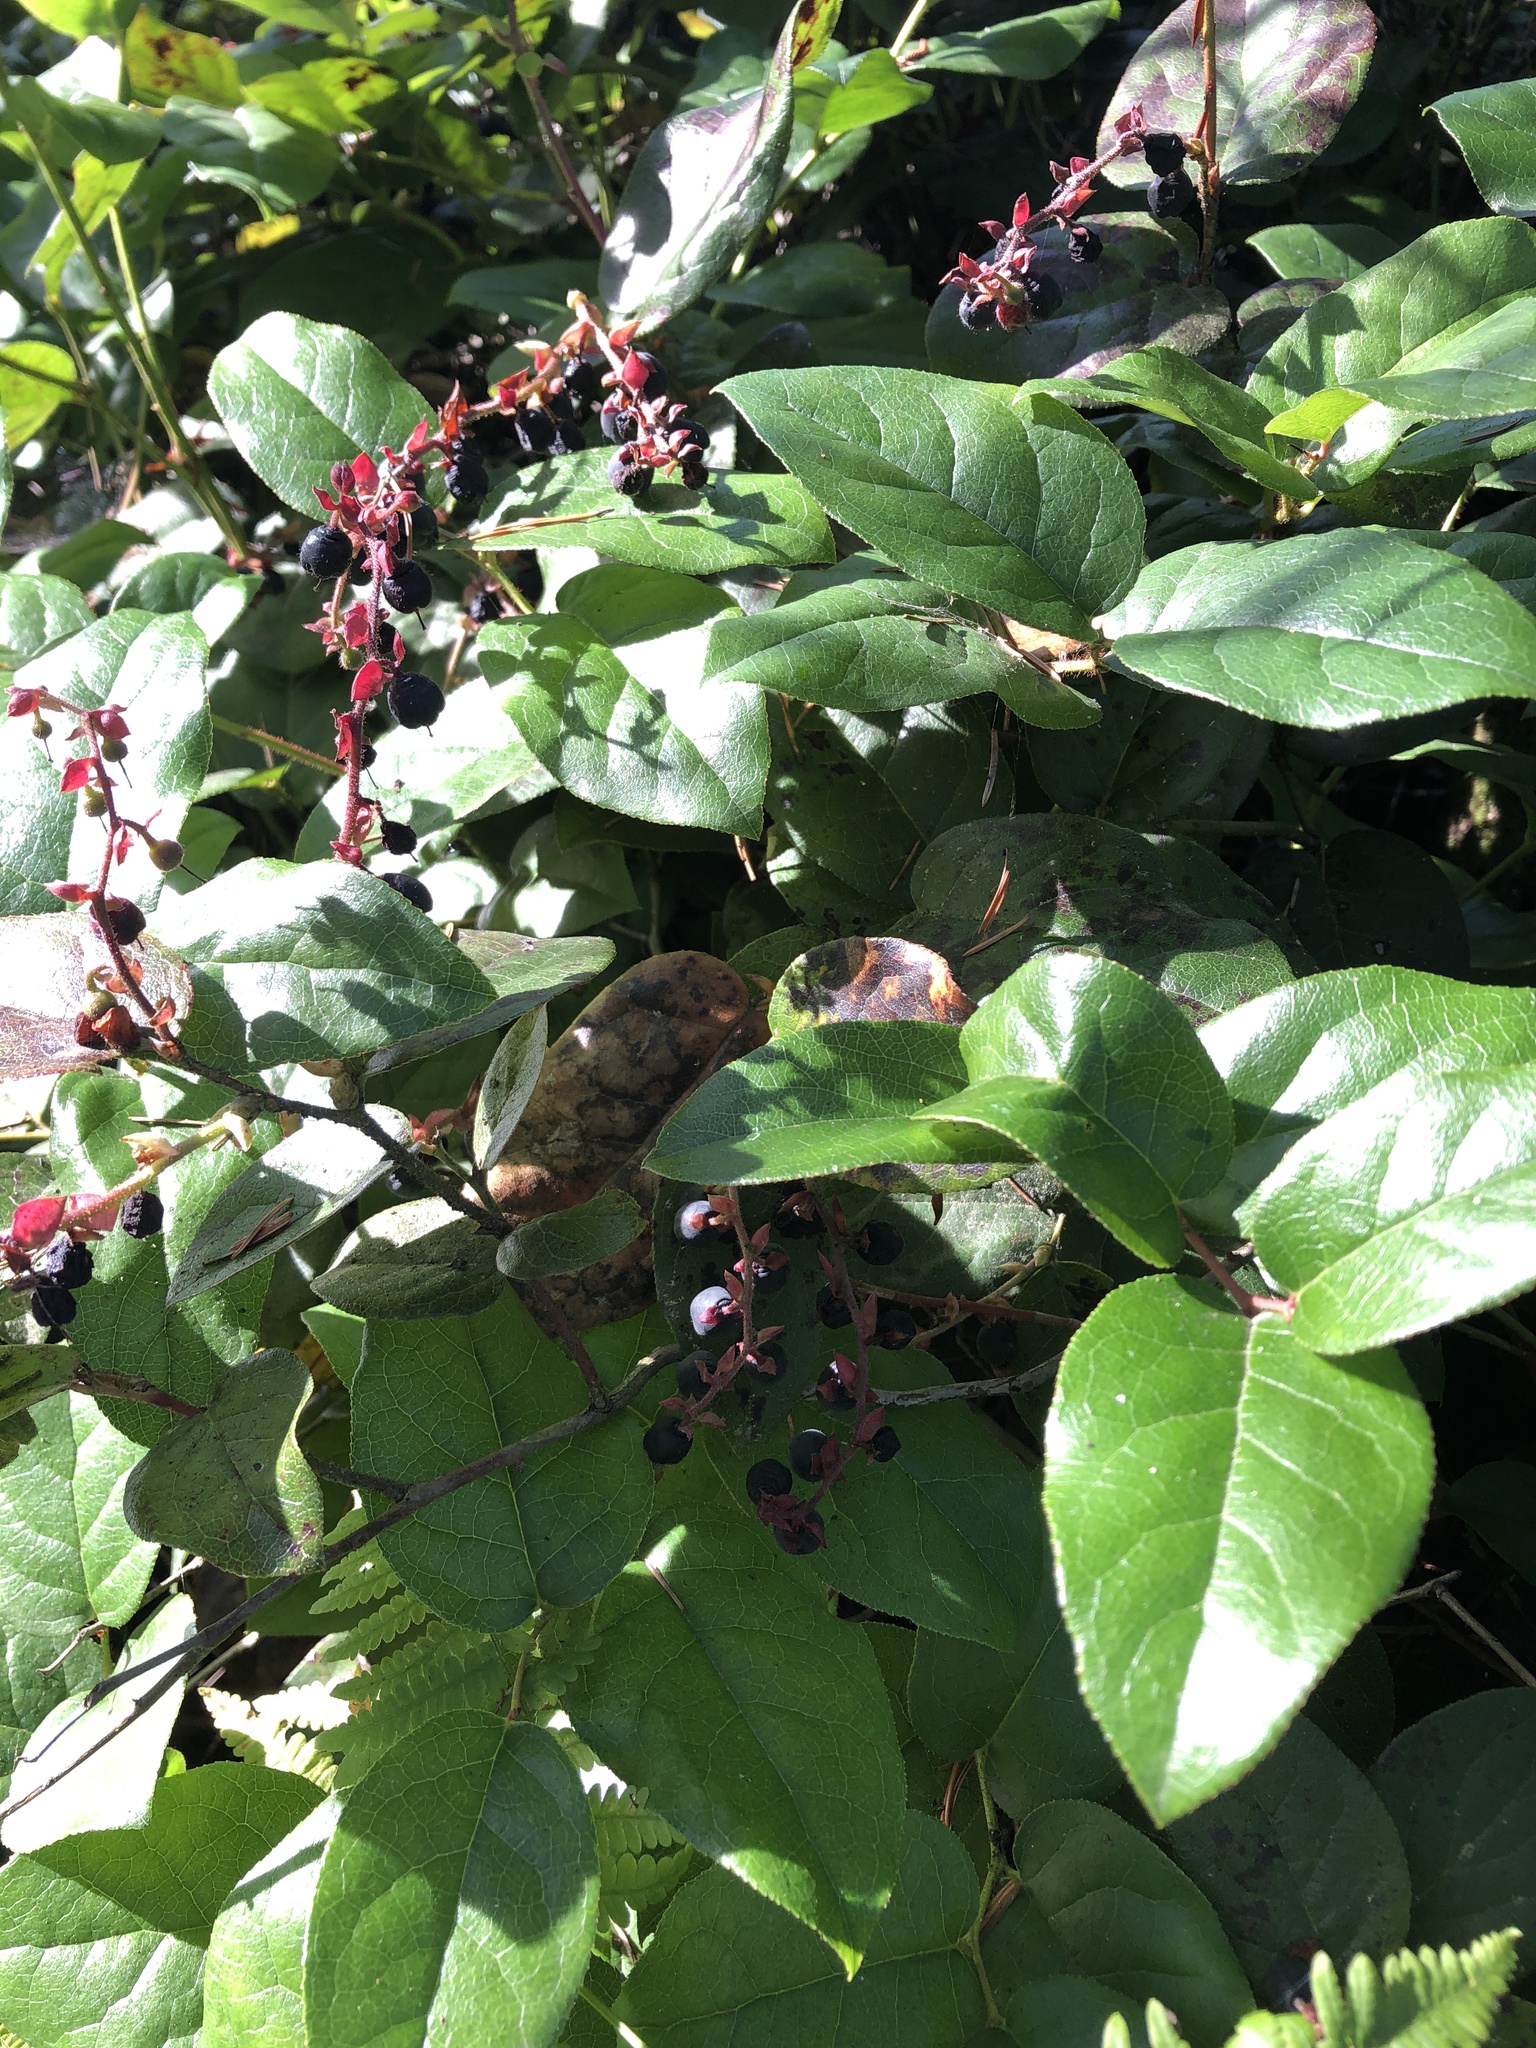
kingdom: Plantae
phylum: Tracheophyta
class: Magnoliopsida
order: Ericales
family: Ericaceae
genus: Gaultheria
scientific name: Gaultheria shallon
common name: Shallon
